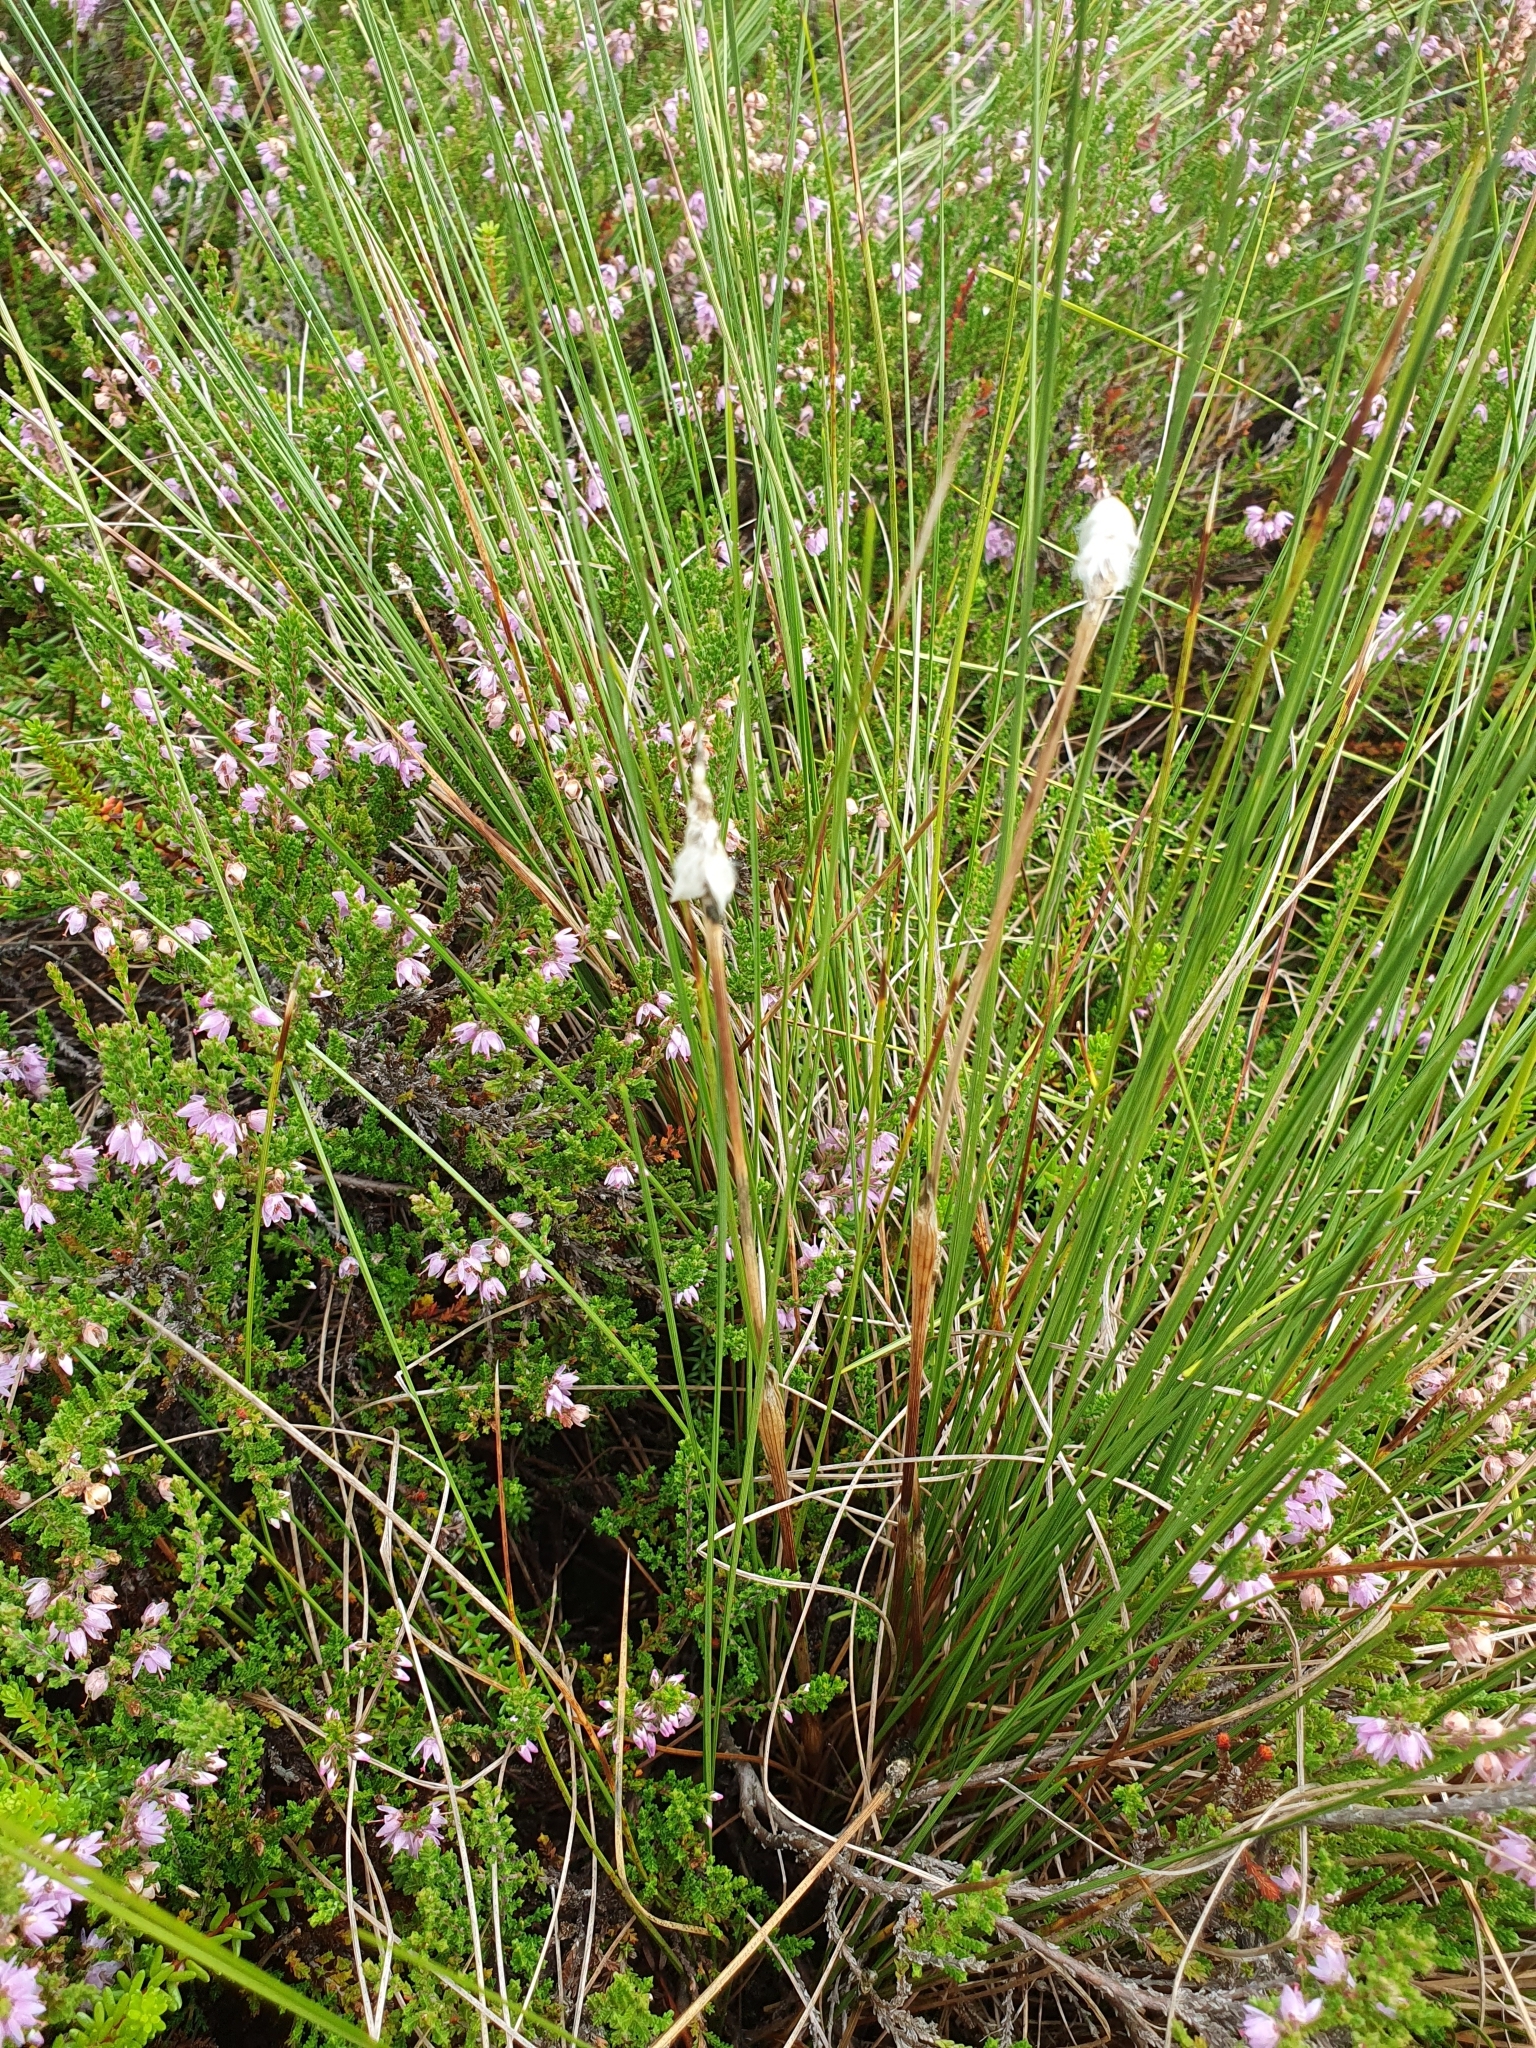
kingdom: Plantae
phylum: Tracheophyta
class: Liliopsida
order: Poales
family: Cyperaceae
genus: Eriophorum
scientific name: Eriophorum vaginatum
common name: Hare's-tail cottongrass
